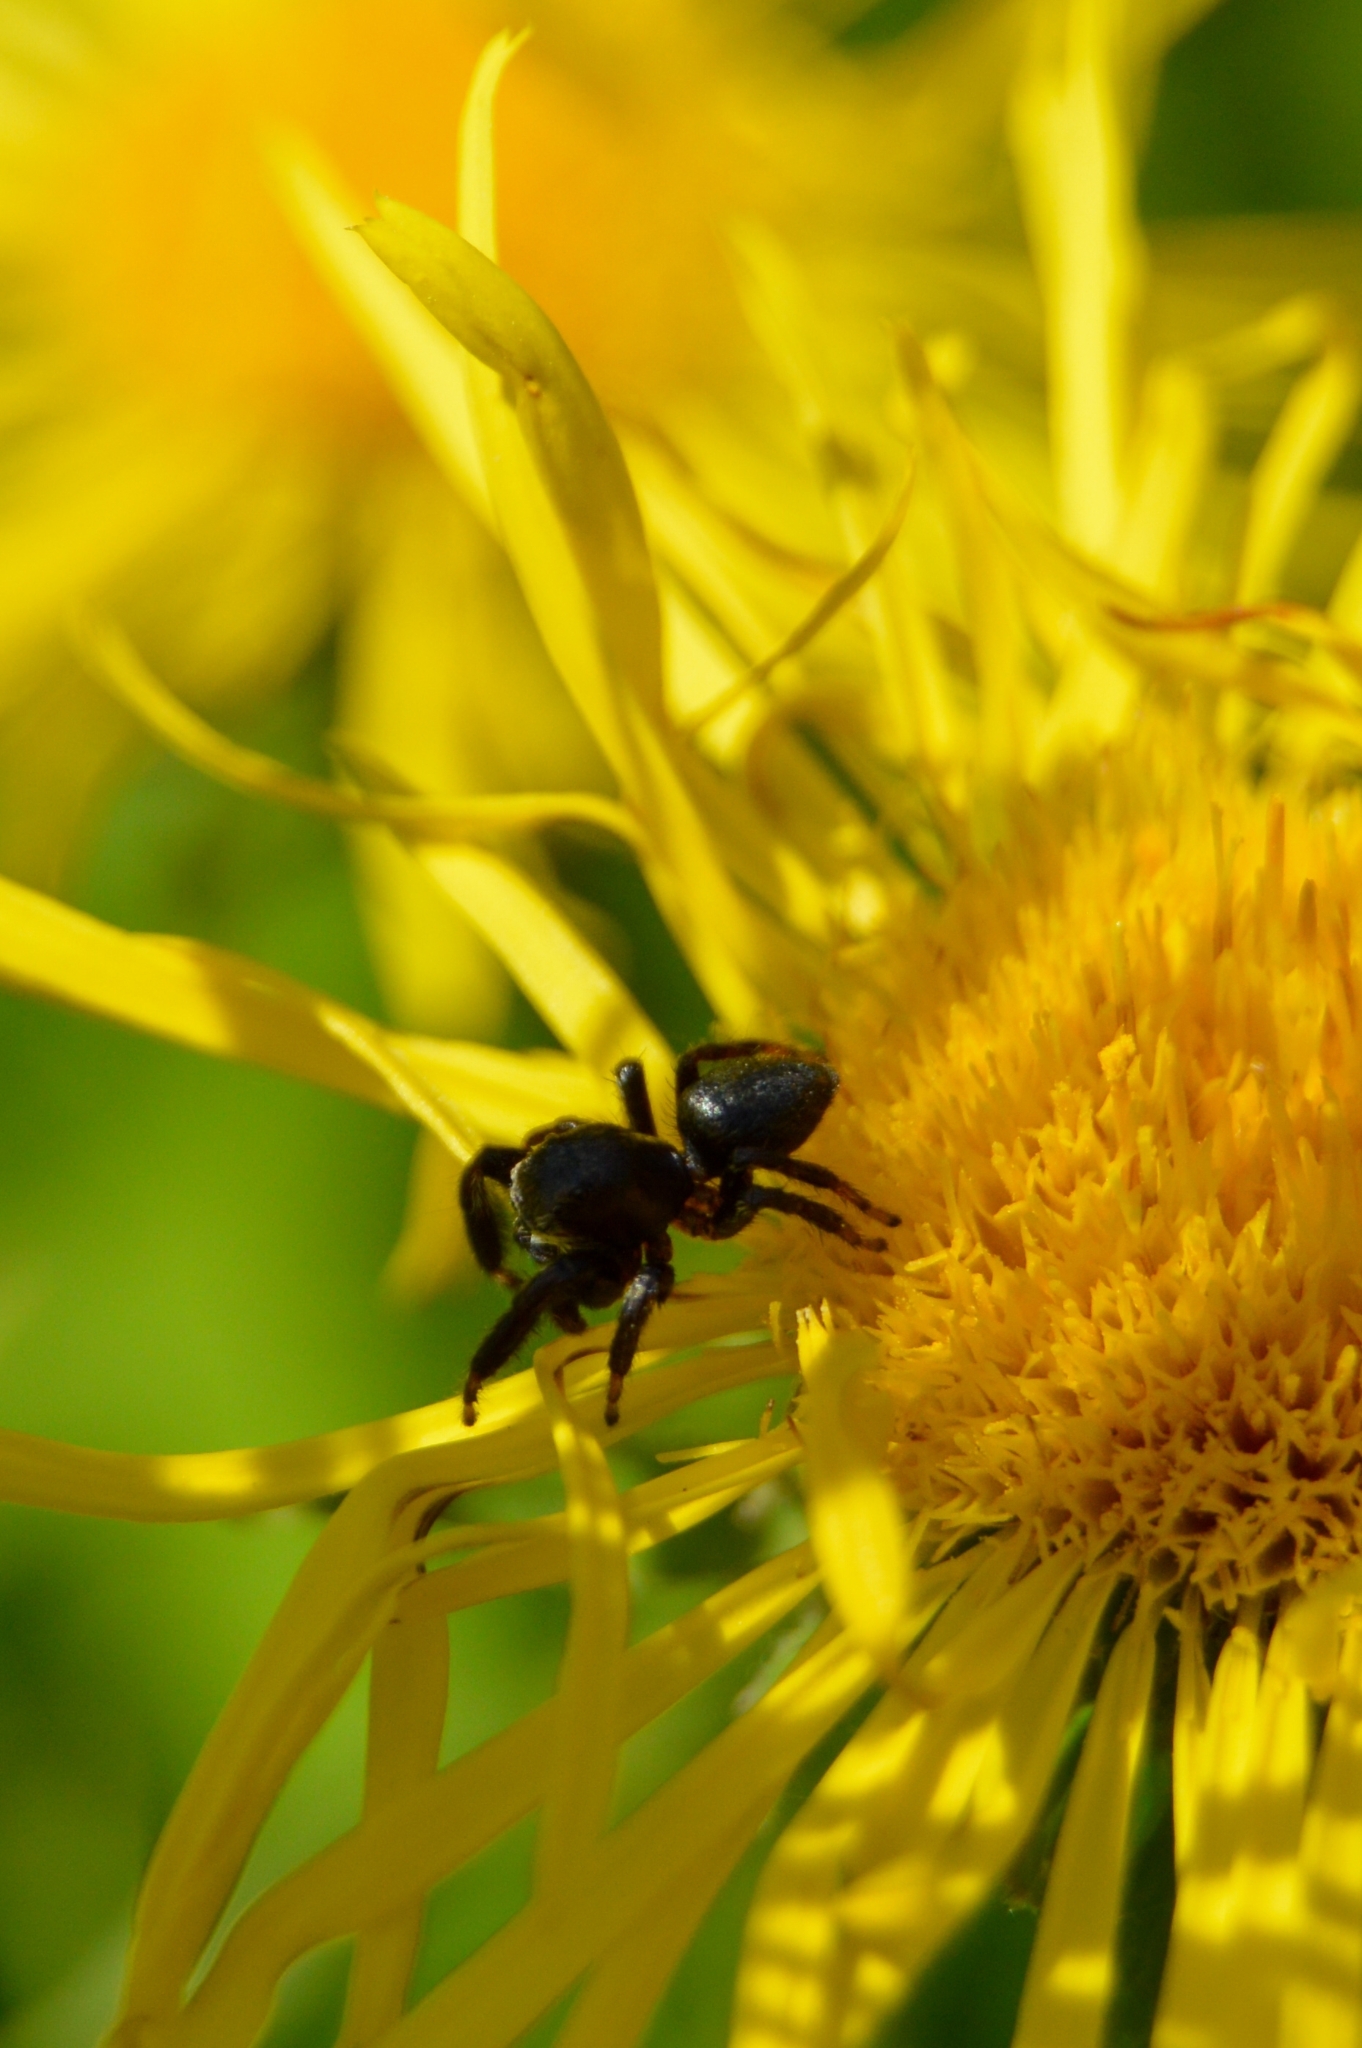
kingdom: Animalia
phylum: Arthropoda
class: Arachnida
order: Araneae
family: Salticidae
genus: Evarcha
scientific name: Evarcha arcuata
